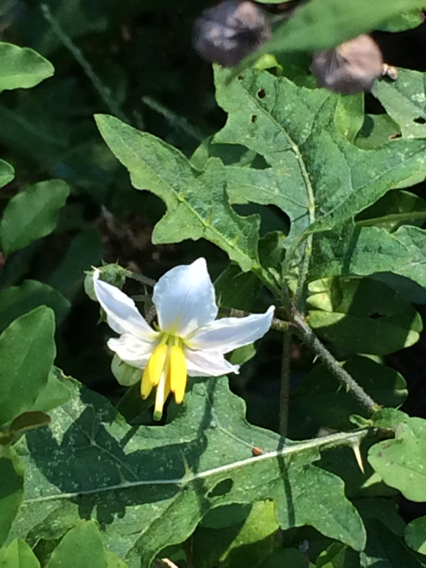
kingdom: Plantae
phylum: Tracheophyta
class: Magnoliopsida
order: Solanales
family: Solanaceae
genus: Solanum
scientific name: Solanum carolinense
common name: Horse-nettle
